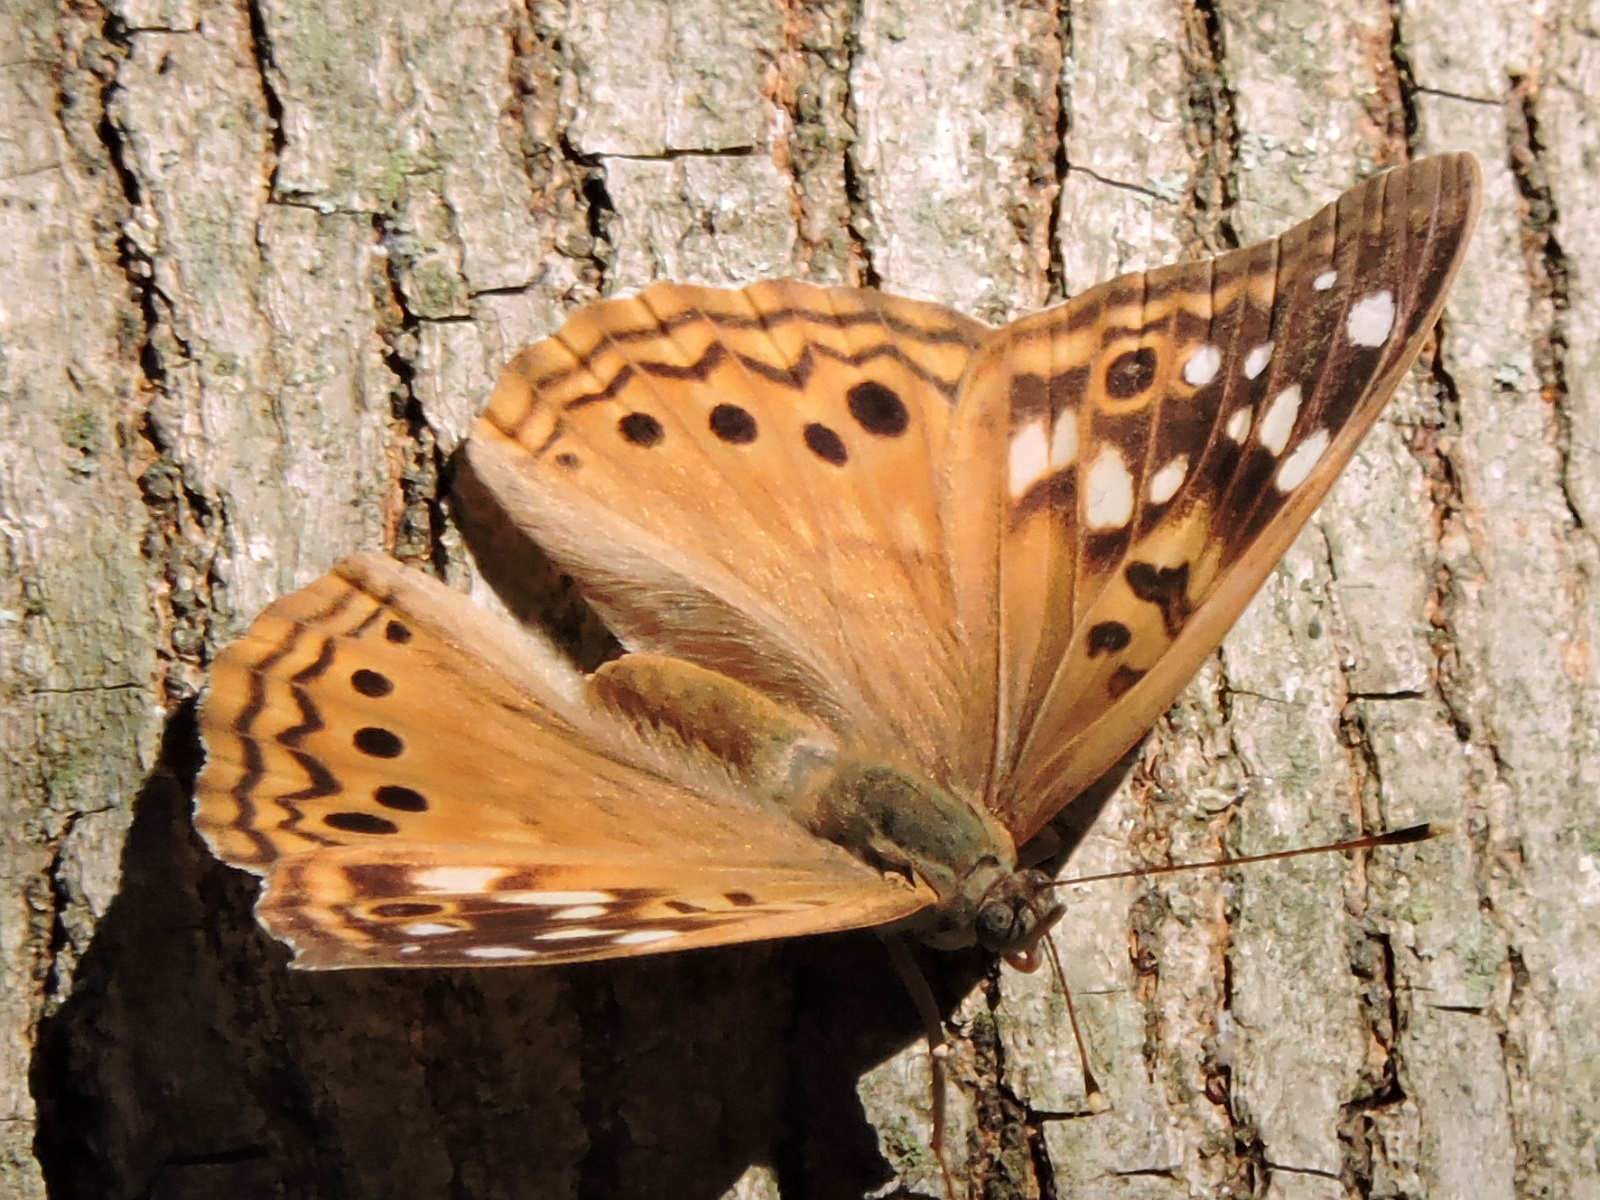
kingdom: Animalia
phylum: Arthropoda
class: Insecta
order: Lepidoptera
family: Nymphalidae
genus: Asterocampa
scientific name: Asterocampa celtis
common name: Hackberry emperor
